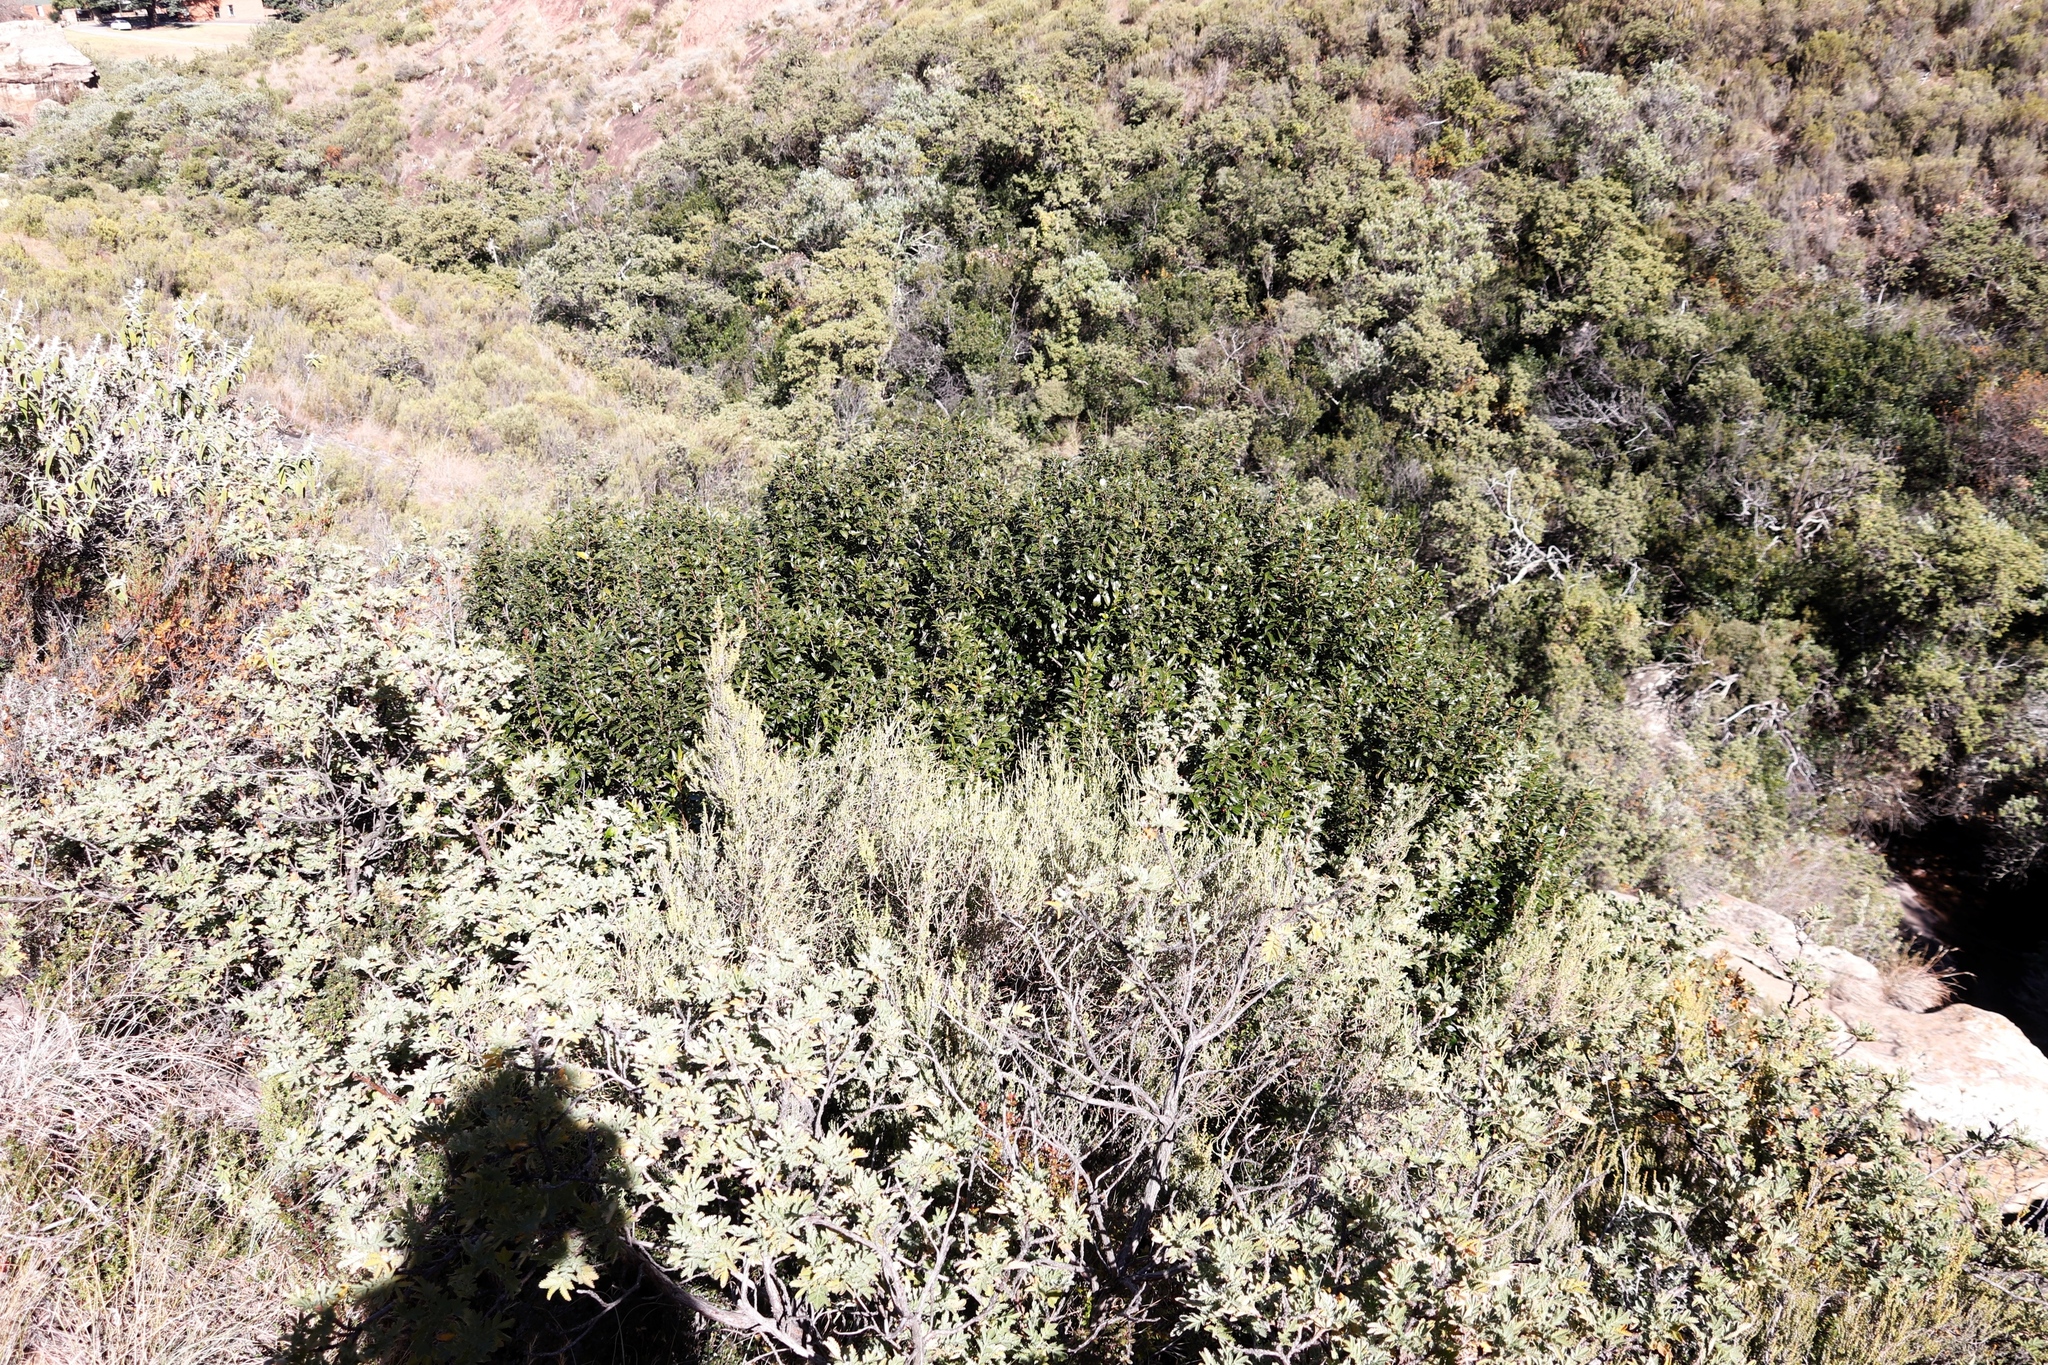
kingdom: Plantae
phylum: Tracheophyta
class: Magnoliopsida
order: Rosales
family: Rhamnaceae
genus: Rhamnus
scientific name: Rhamnus prinoides
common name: Dogwood
